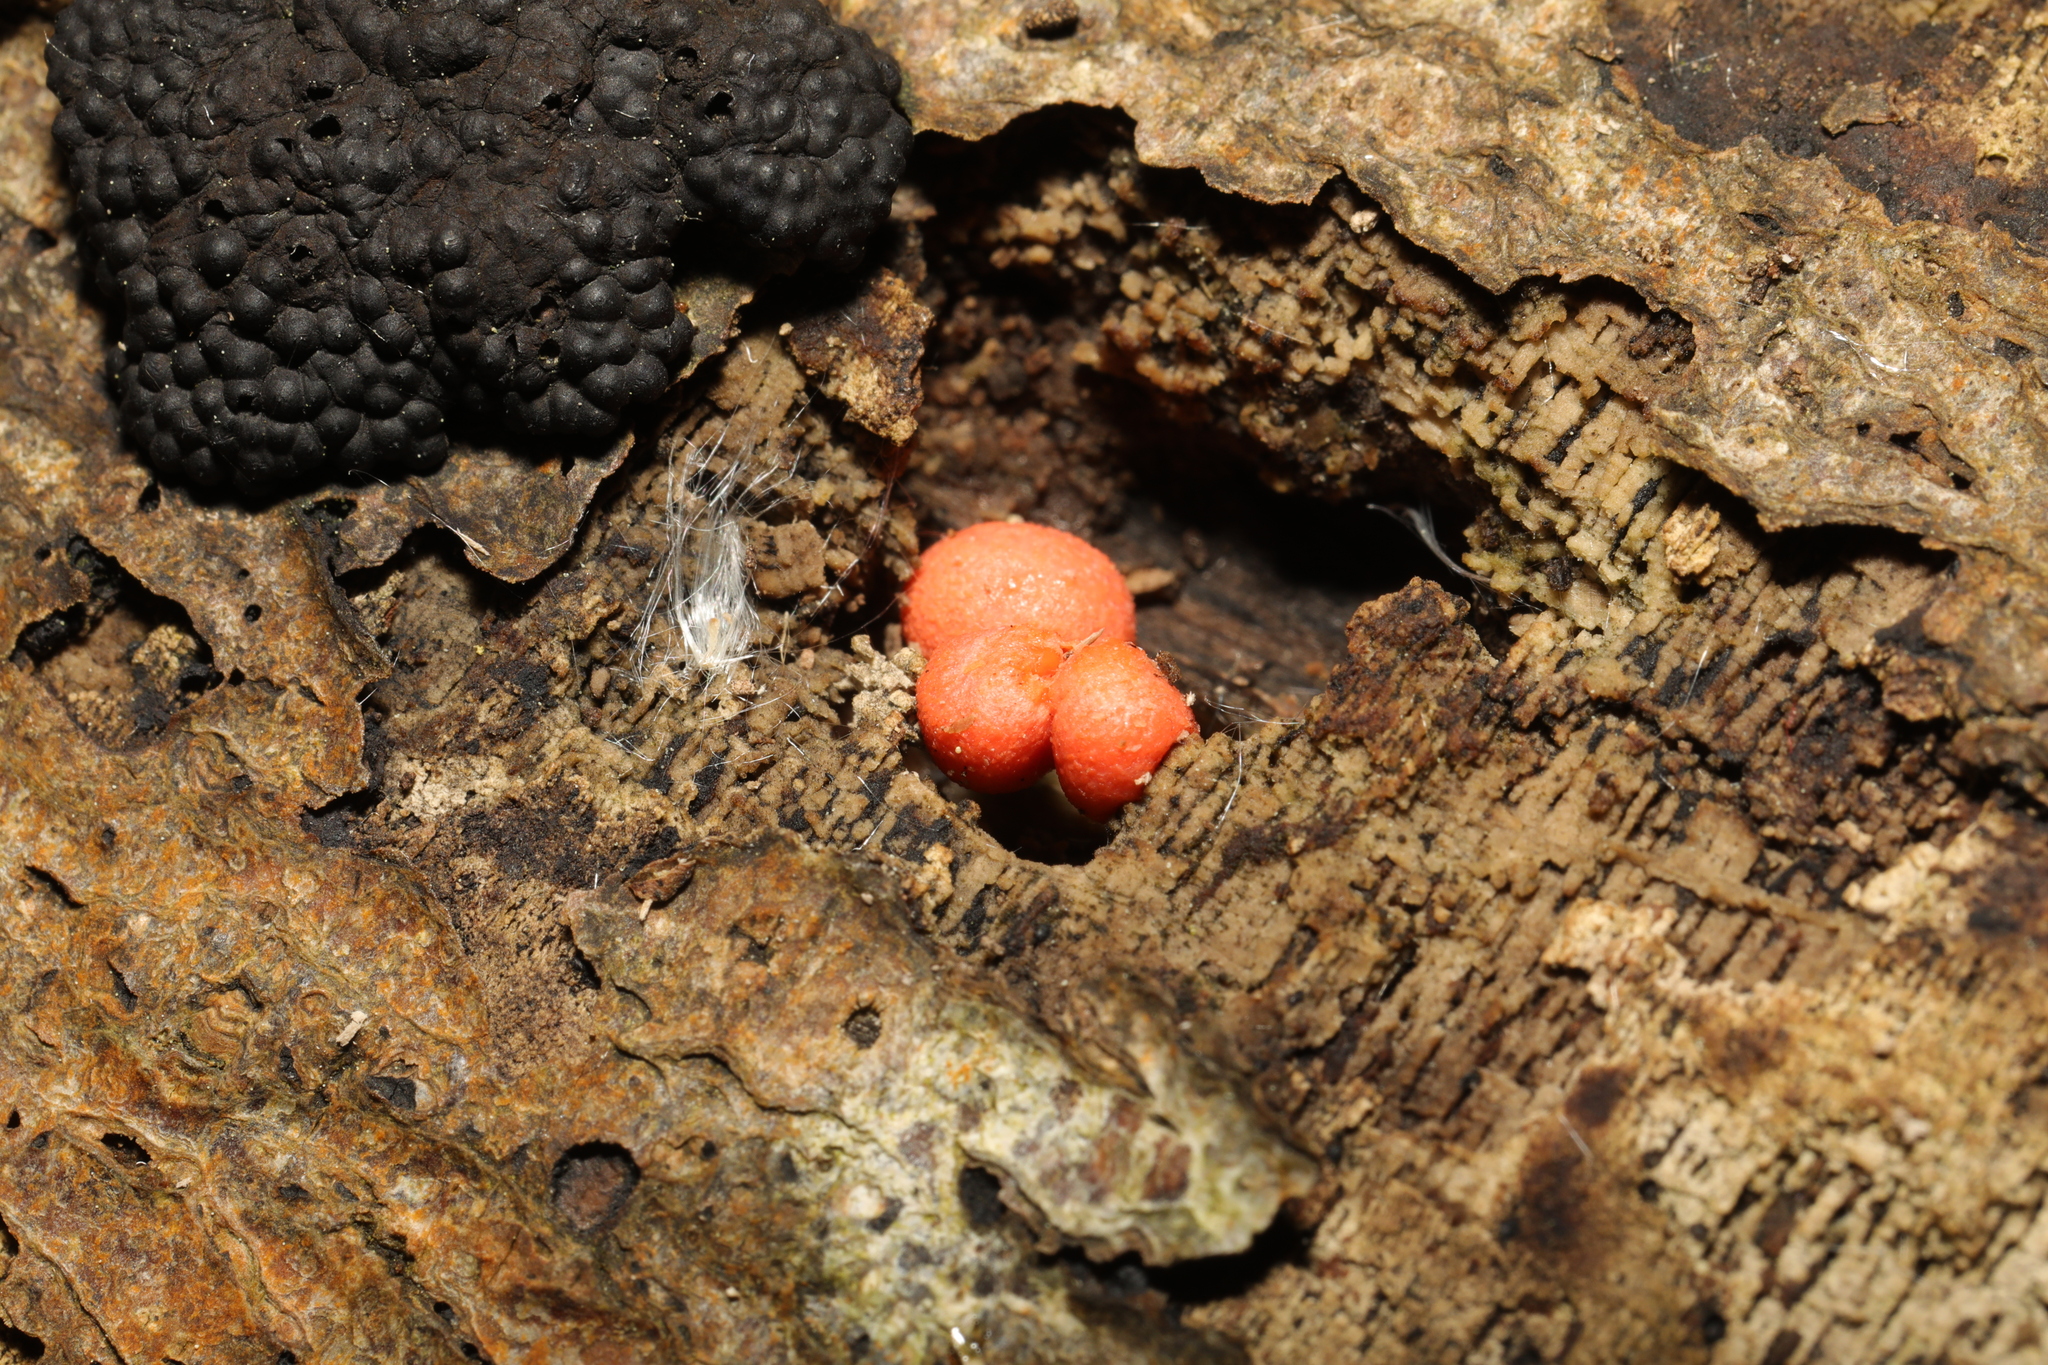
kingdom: Protozoa
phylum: Mycetozoa
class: Myxomycetes
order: Cribrariales
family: Tubiferaceae
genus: Lycogala
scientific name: Lycogala epidendrum
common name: Wolf's milk
